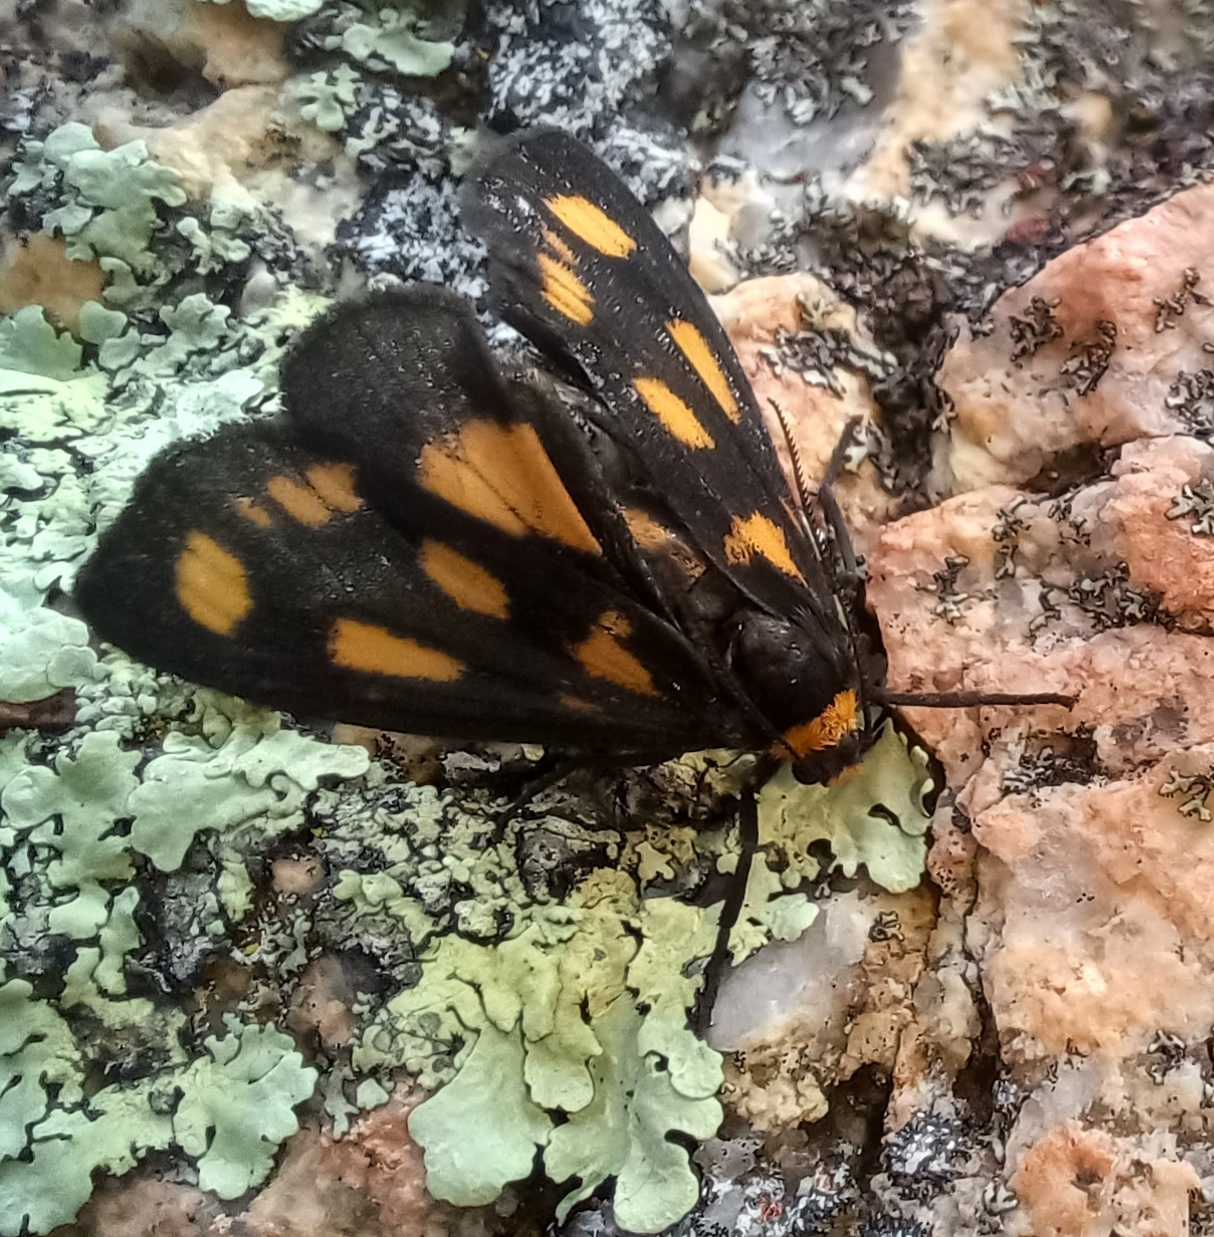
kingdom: Animalia
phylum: Arthropoda
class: Insecta
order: Lepidoptera
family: Erebidae
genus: Asura
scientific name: Asura cervicalis
